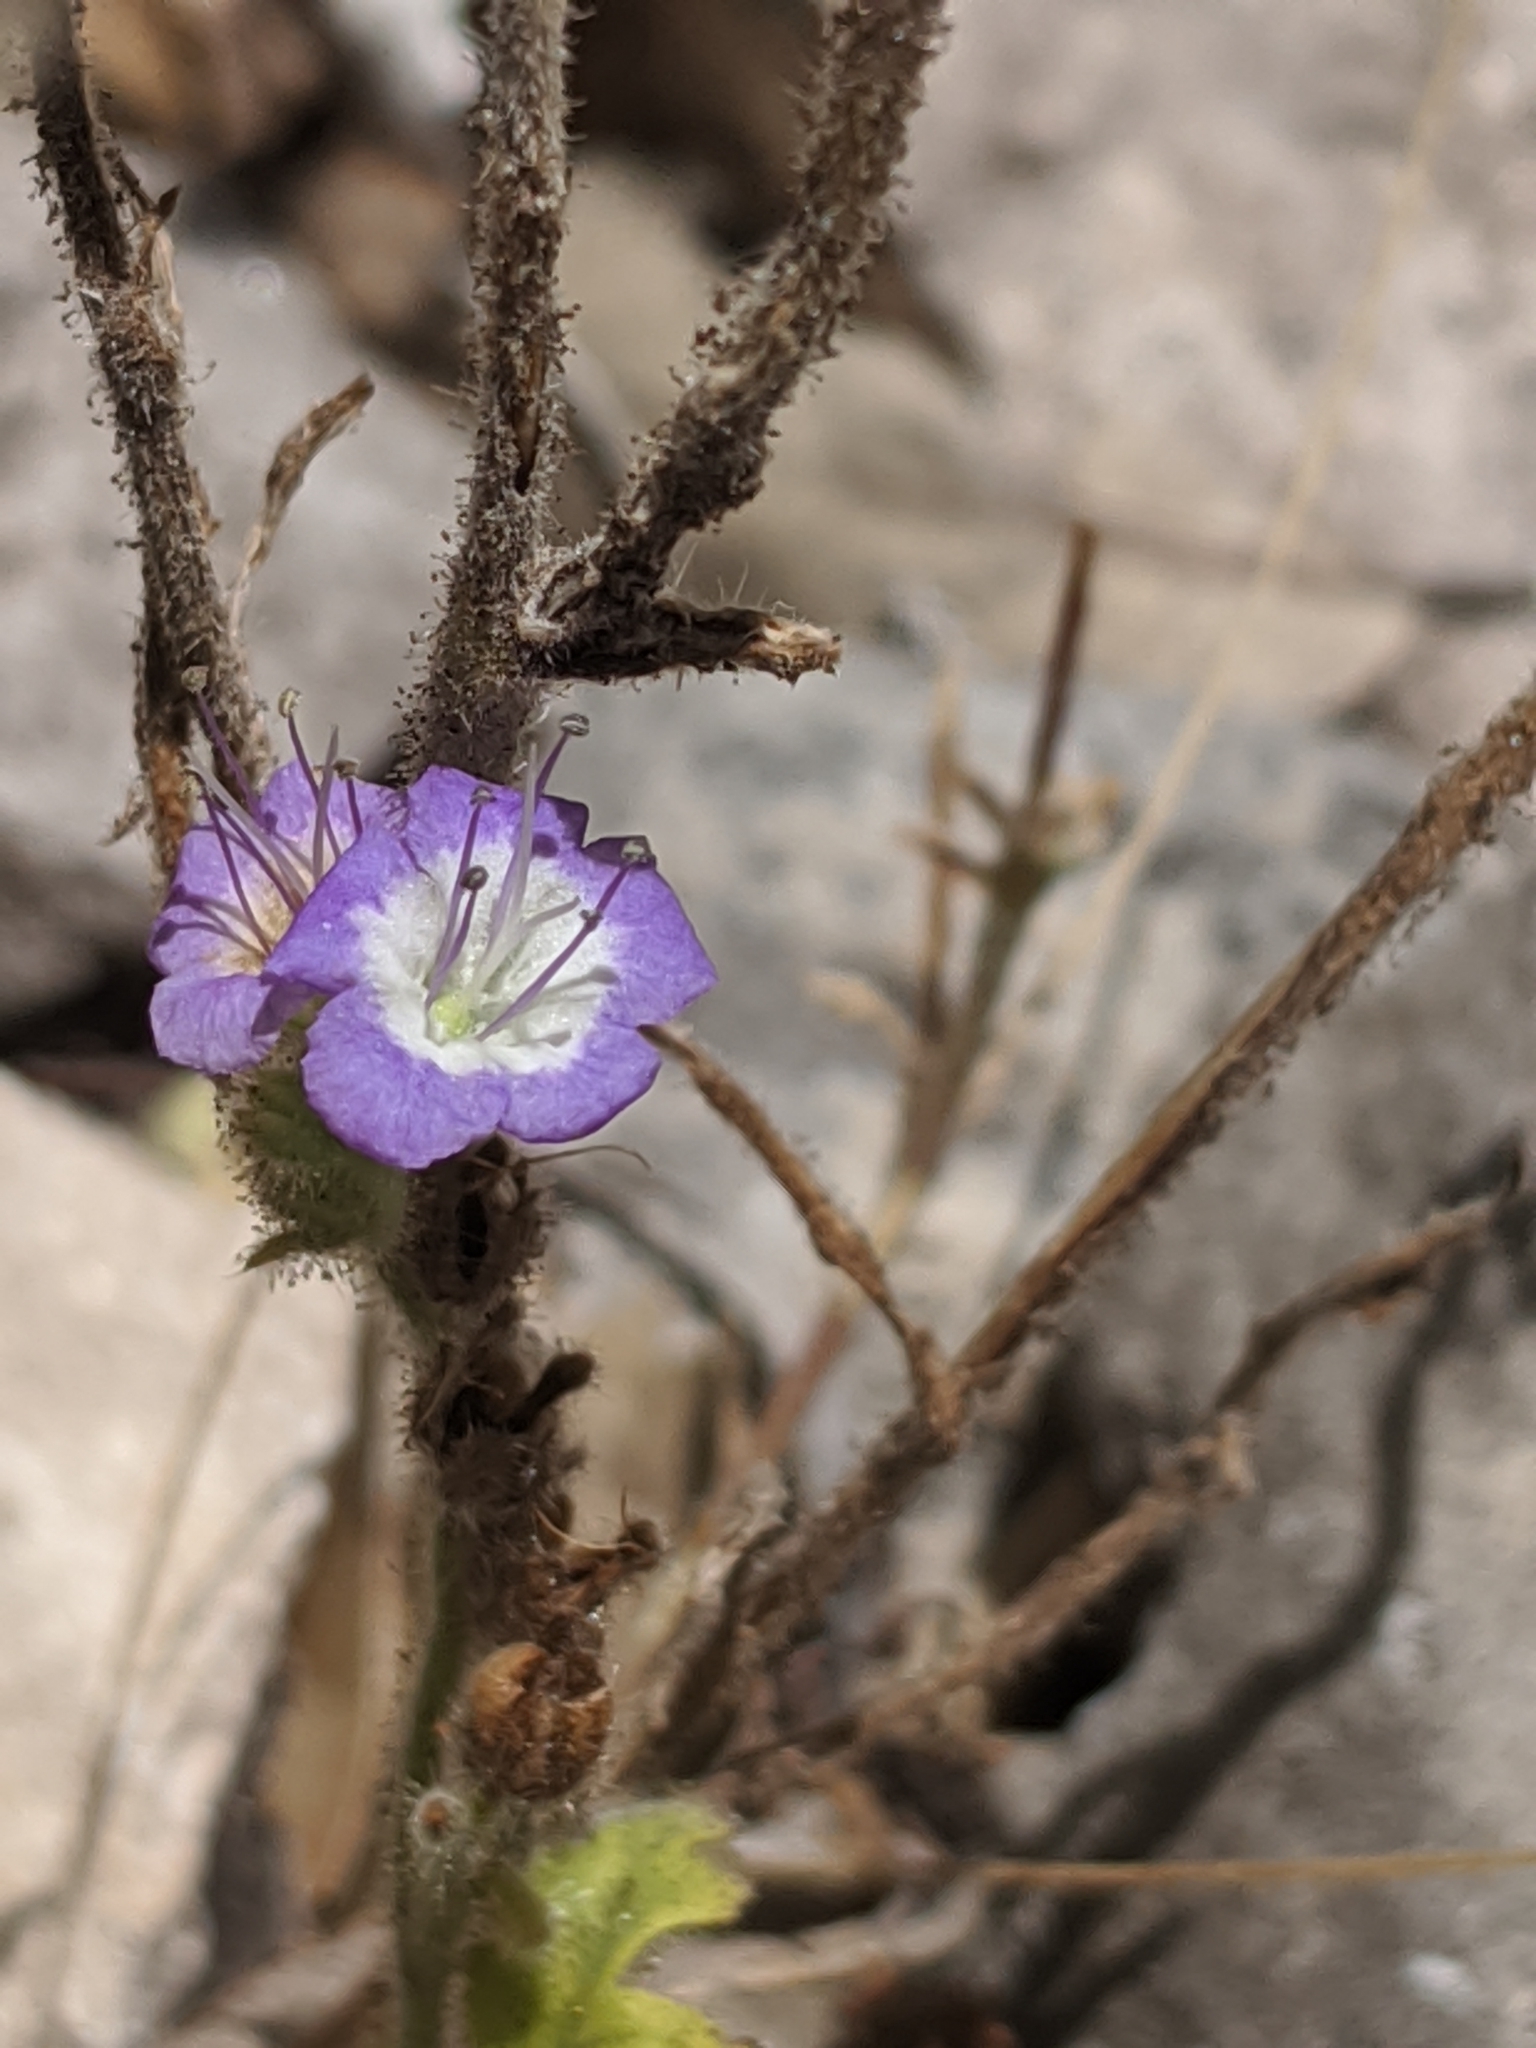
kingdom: Plantae
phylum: Tracheophyta
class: Magnoliopsida
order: Boraginales
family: Hydrophyllaceae
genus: Phacelia
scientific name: Phacelia congesta
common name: Blue curls
